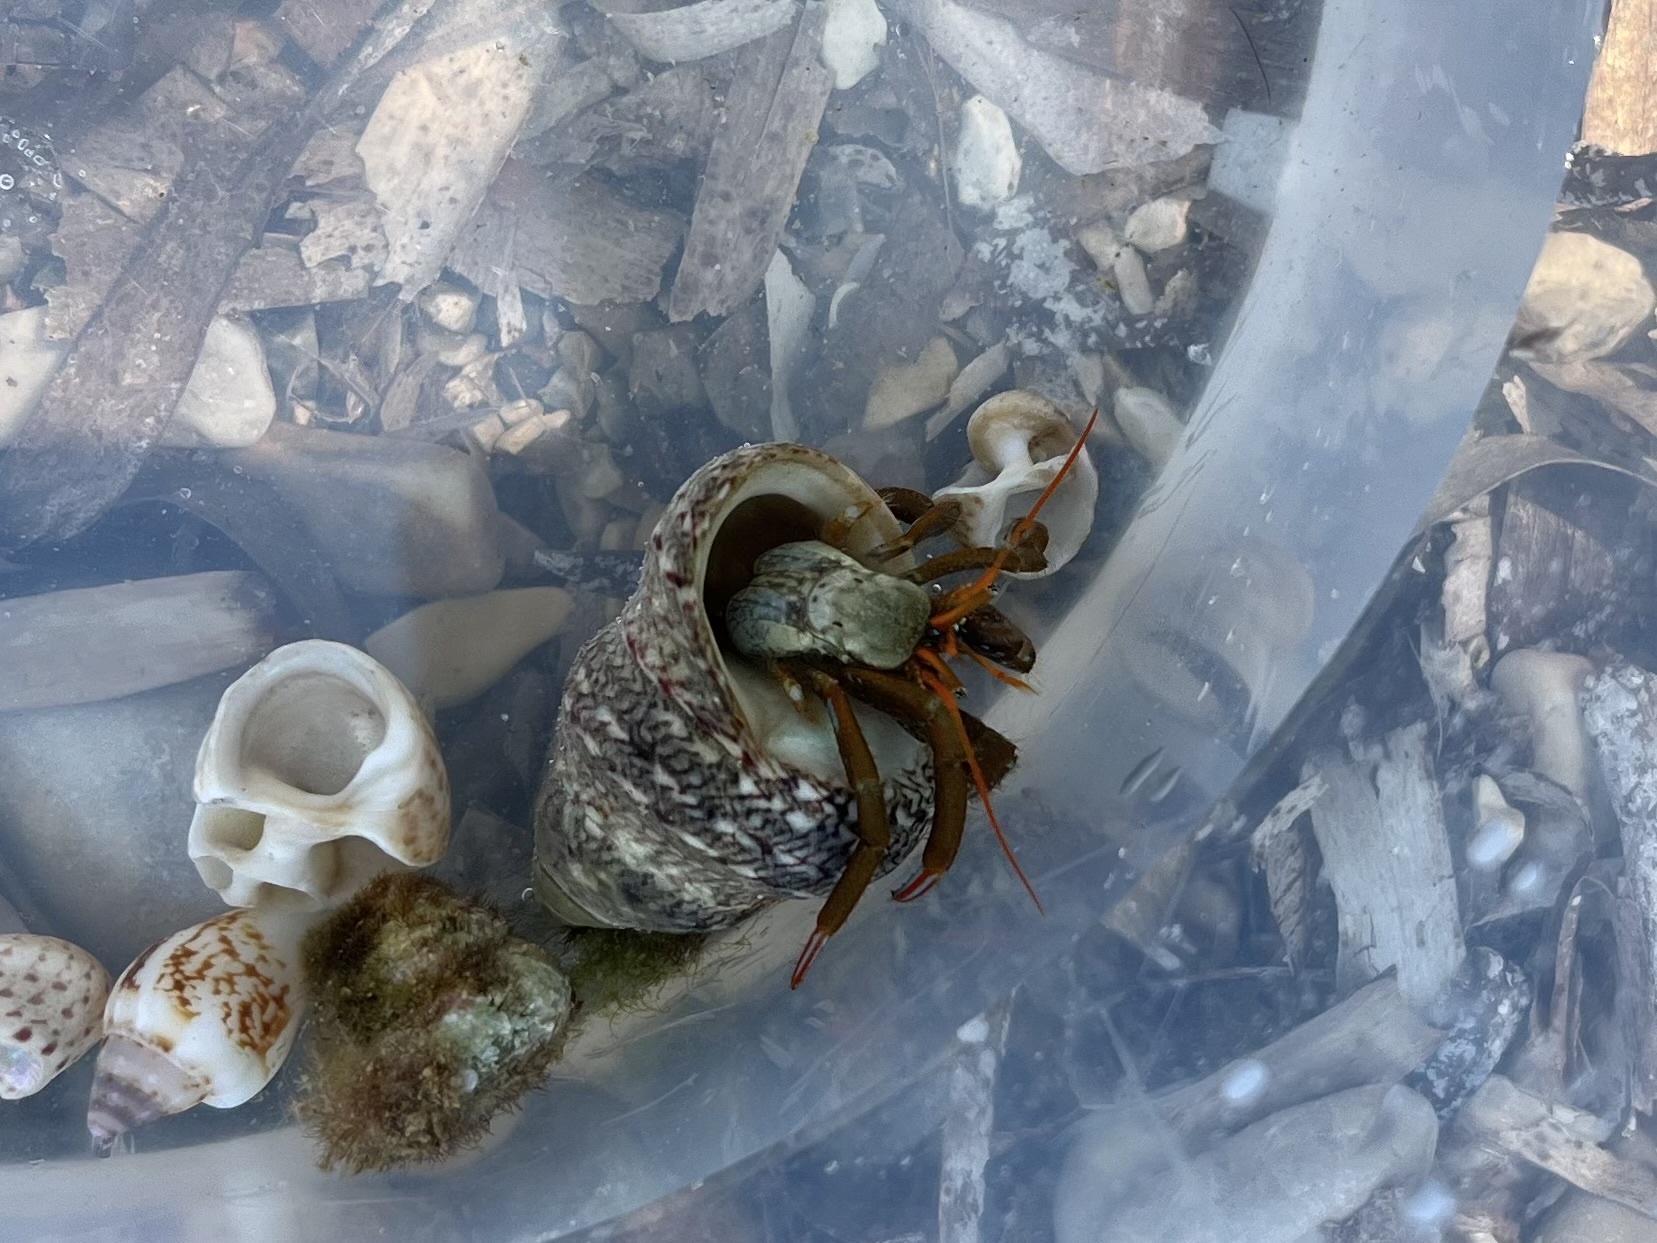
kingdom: Animalia
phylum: Arthropoda
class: Malacostraca
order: Decapoda
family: Diogenidae
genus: Clibanarius
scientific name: Clibanarius erythropus
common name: Hermit crab
